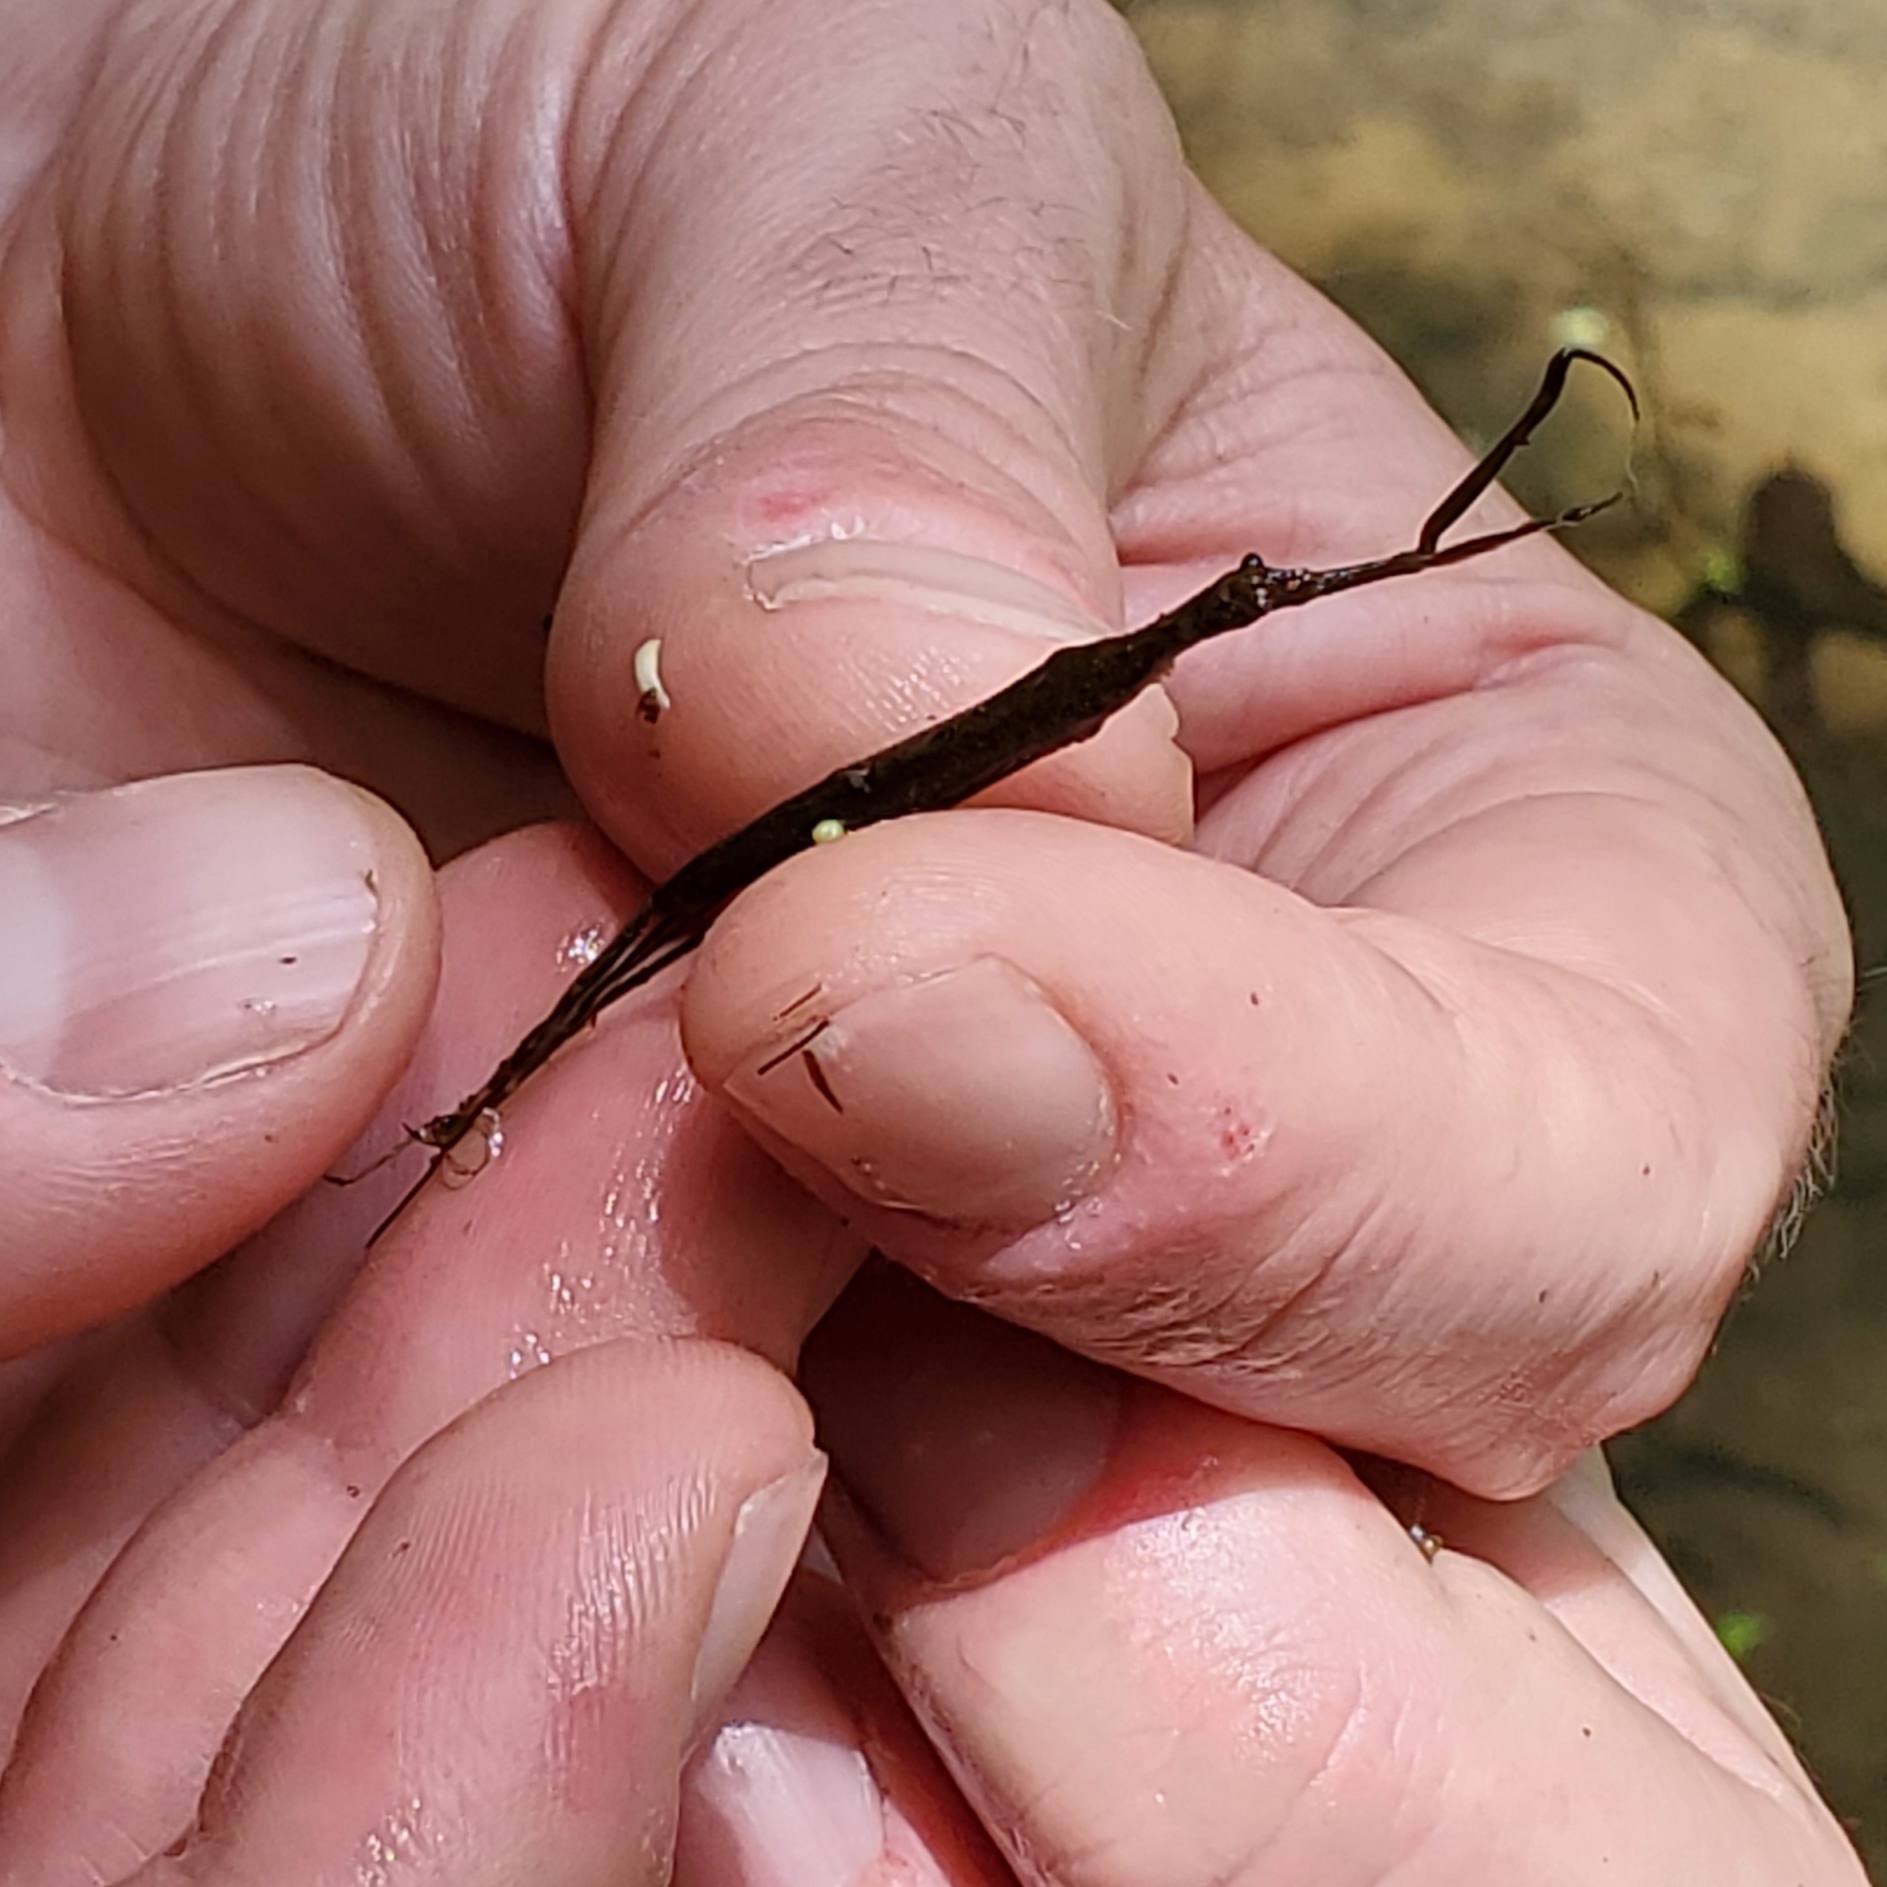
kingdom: Animalia
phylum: Arthropoda
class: Insecta
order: Hemiptera
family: Nepidae
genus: Ranatra
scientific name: Ranatra
